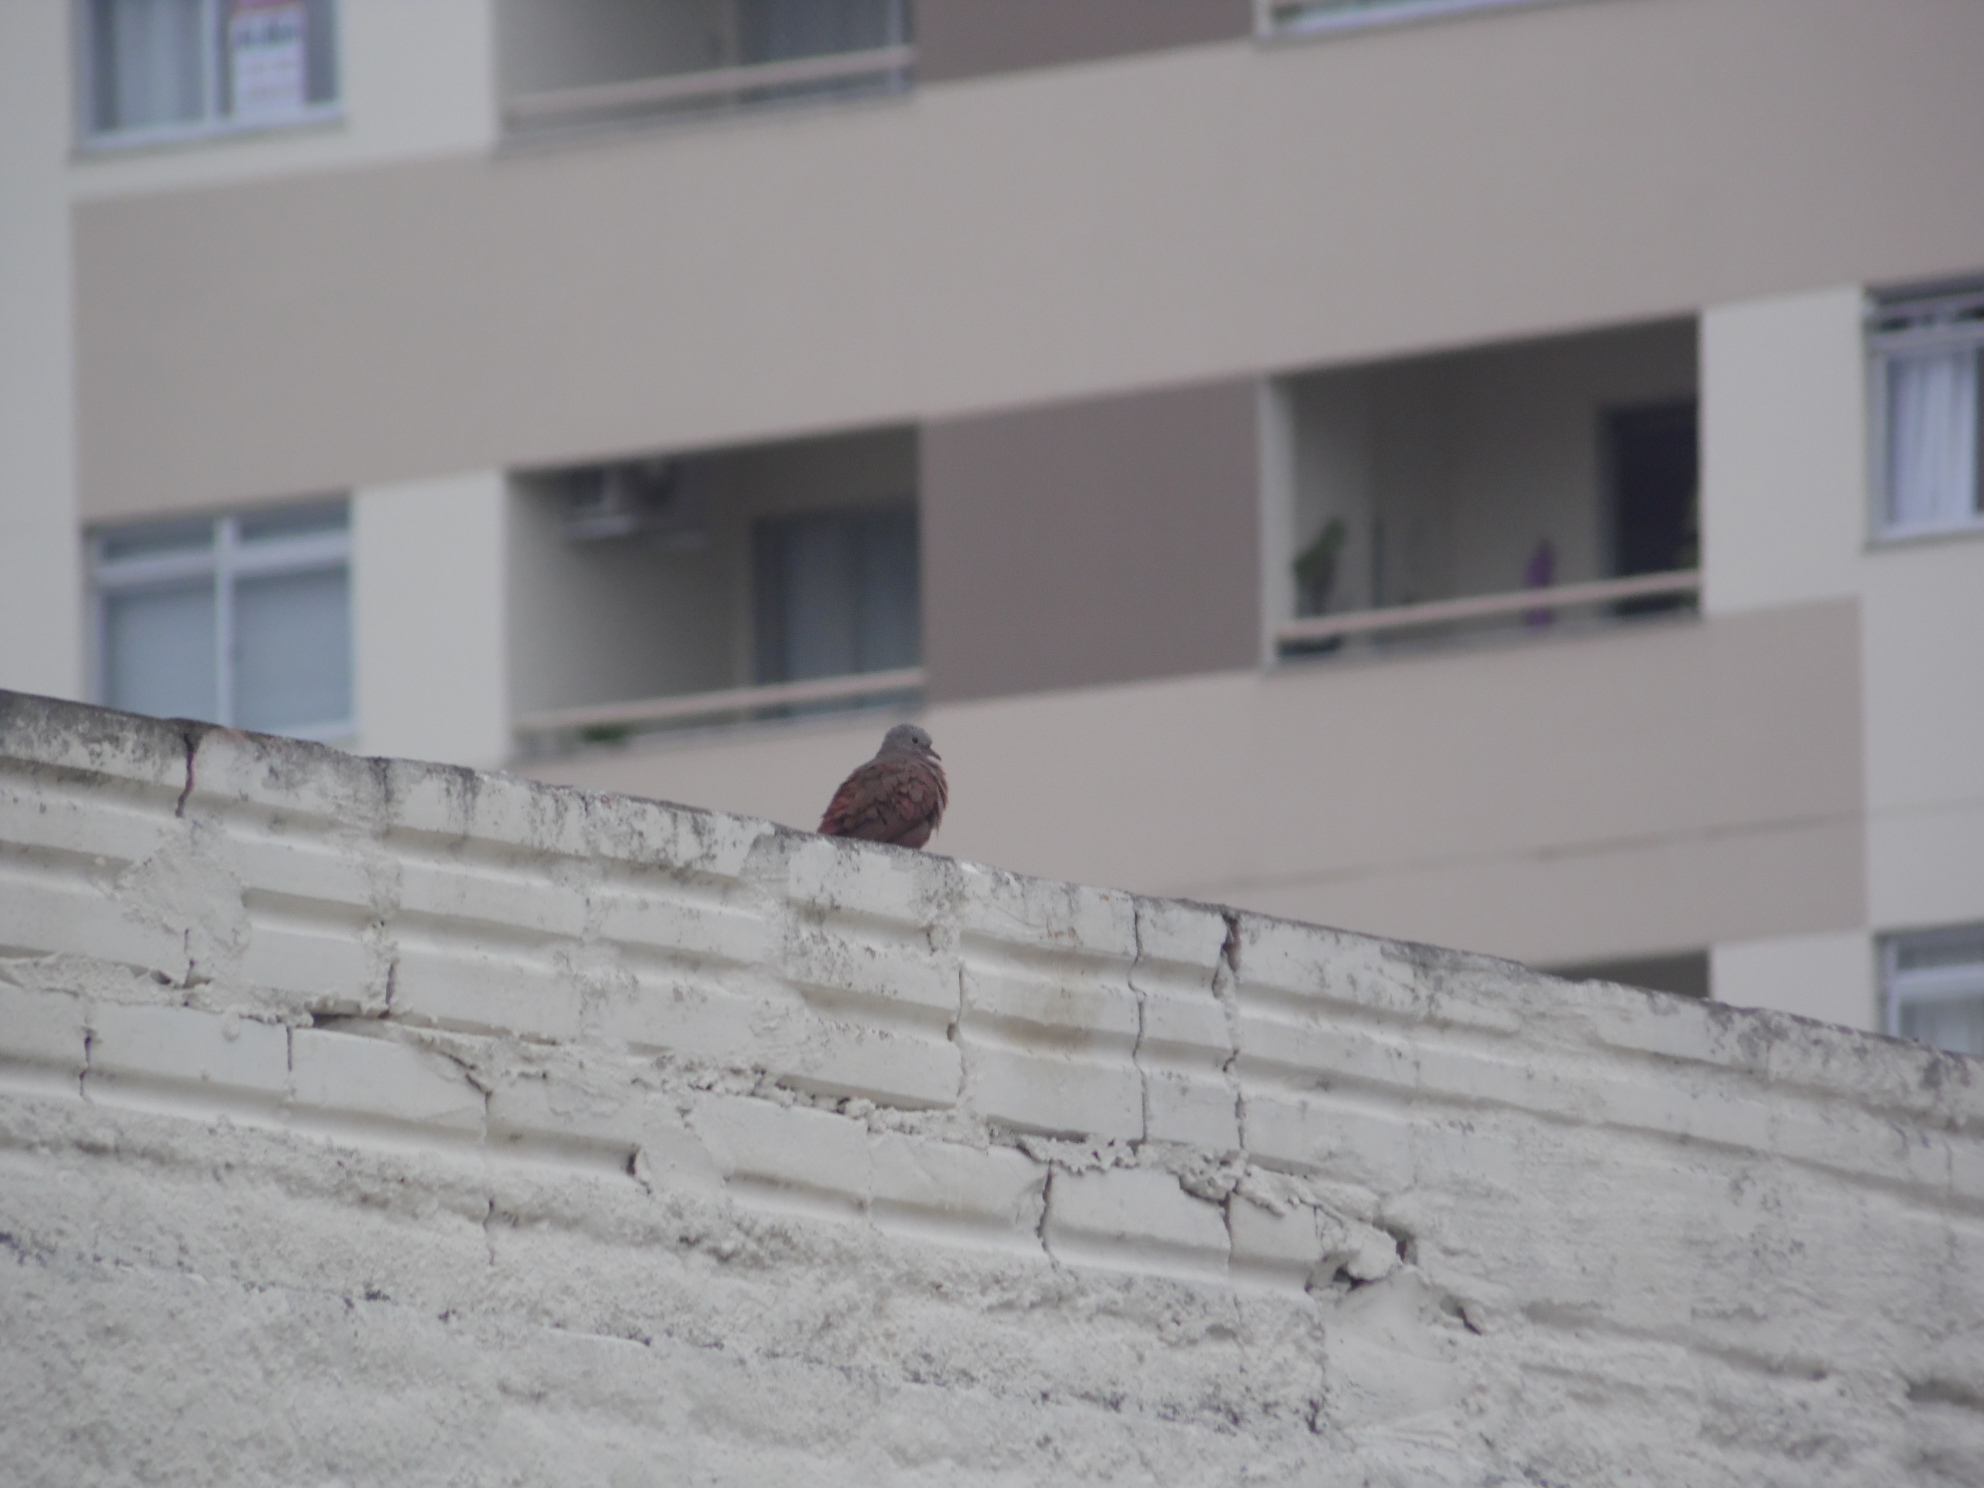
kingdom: Animalia
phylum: Chordata
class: Aves
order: Columbiformes
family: Columbidae
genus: Columbina
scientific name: Columbina talpacoti
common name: Ruddy ground dove
